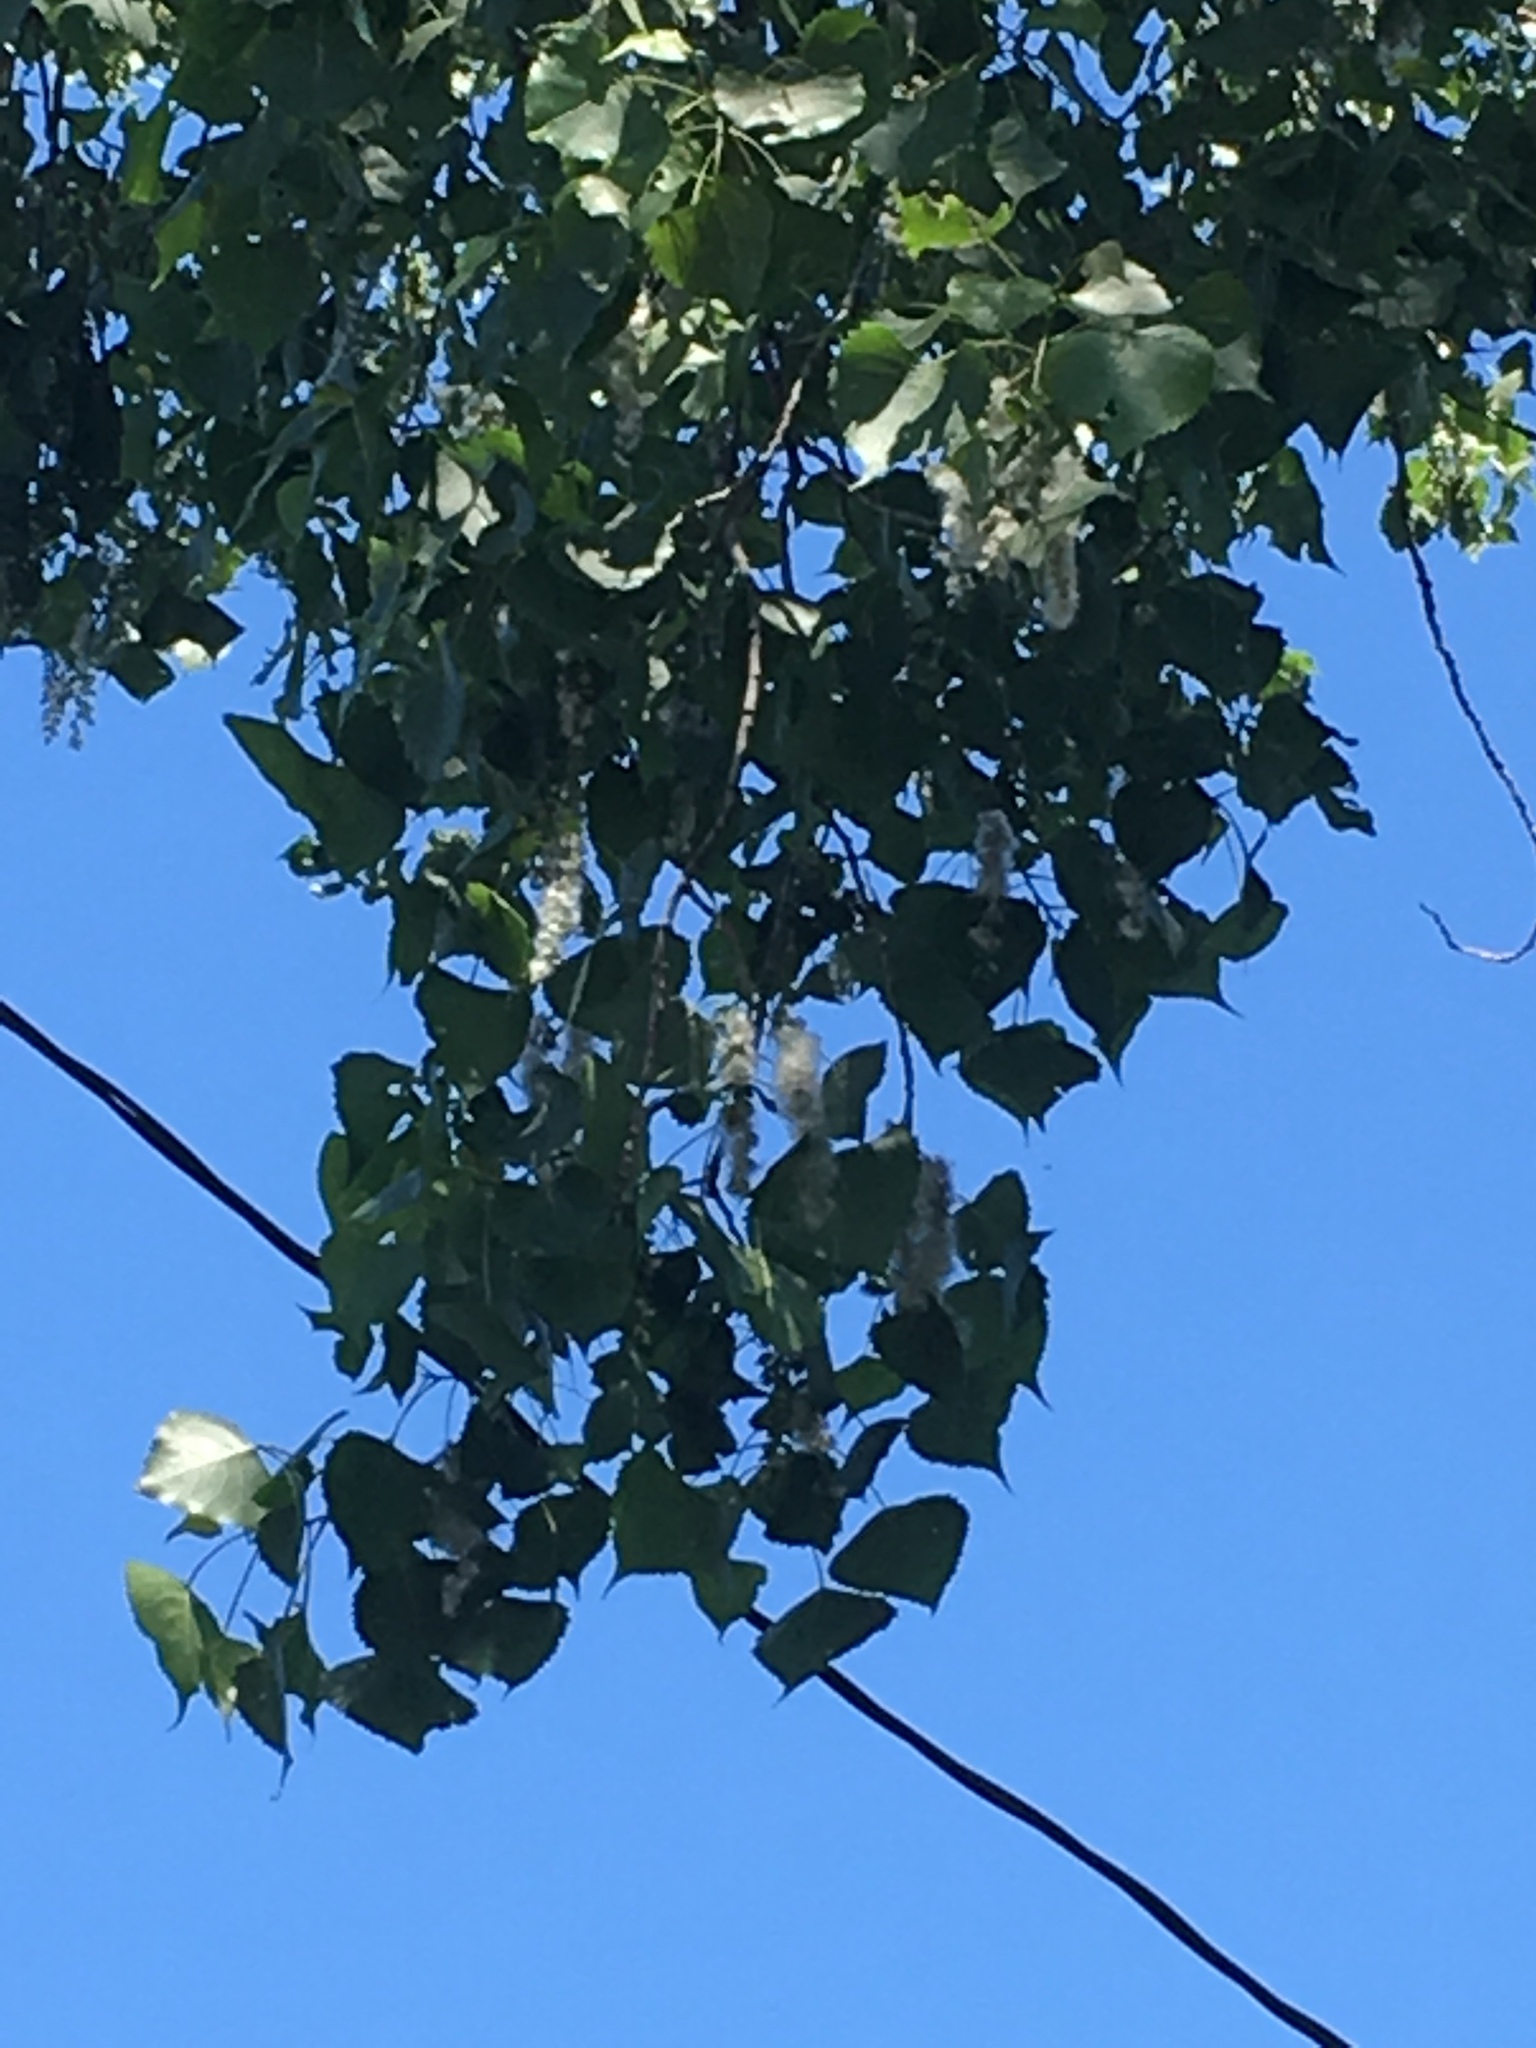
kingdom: Plantae
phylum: Tracheophyta
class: Magnoliopsida
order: Malpighiales
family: Salicaceae
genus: Populus
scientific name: Populus deltoides
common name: Eastern cottonwood
